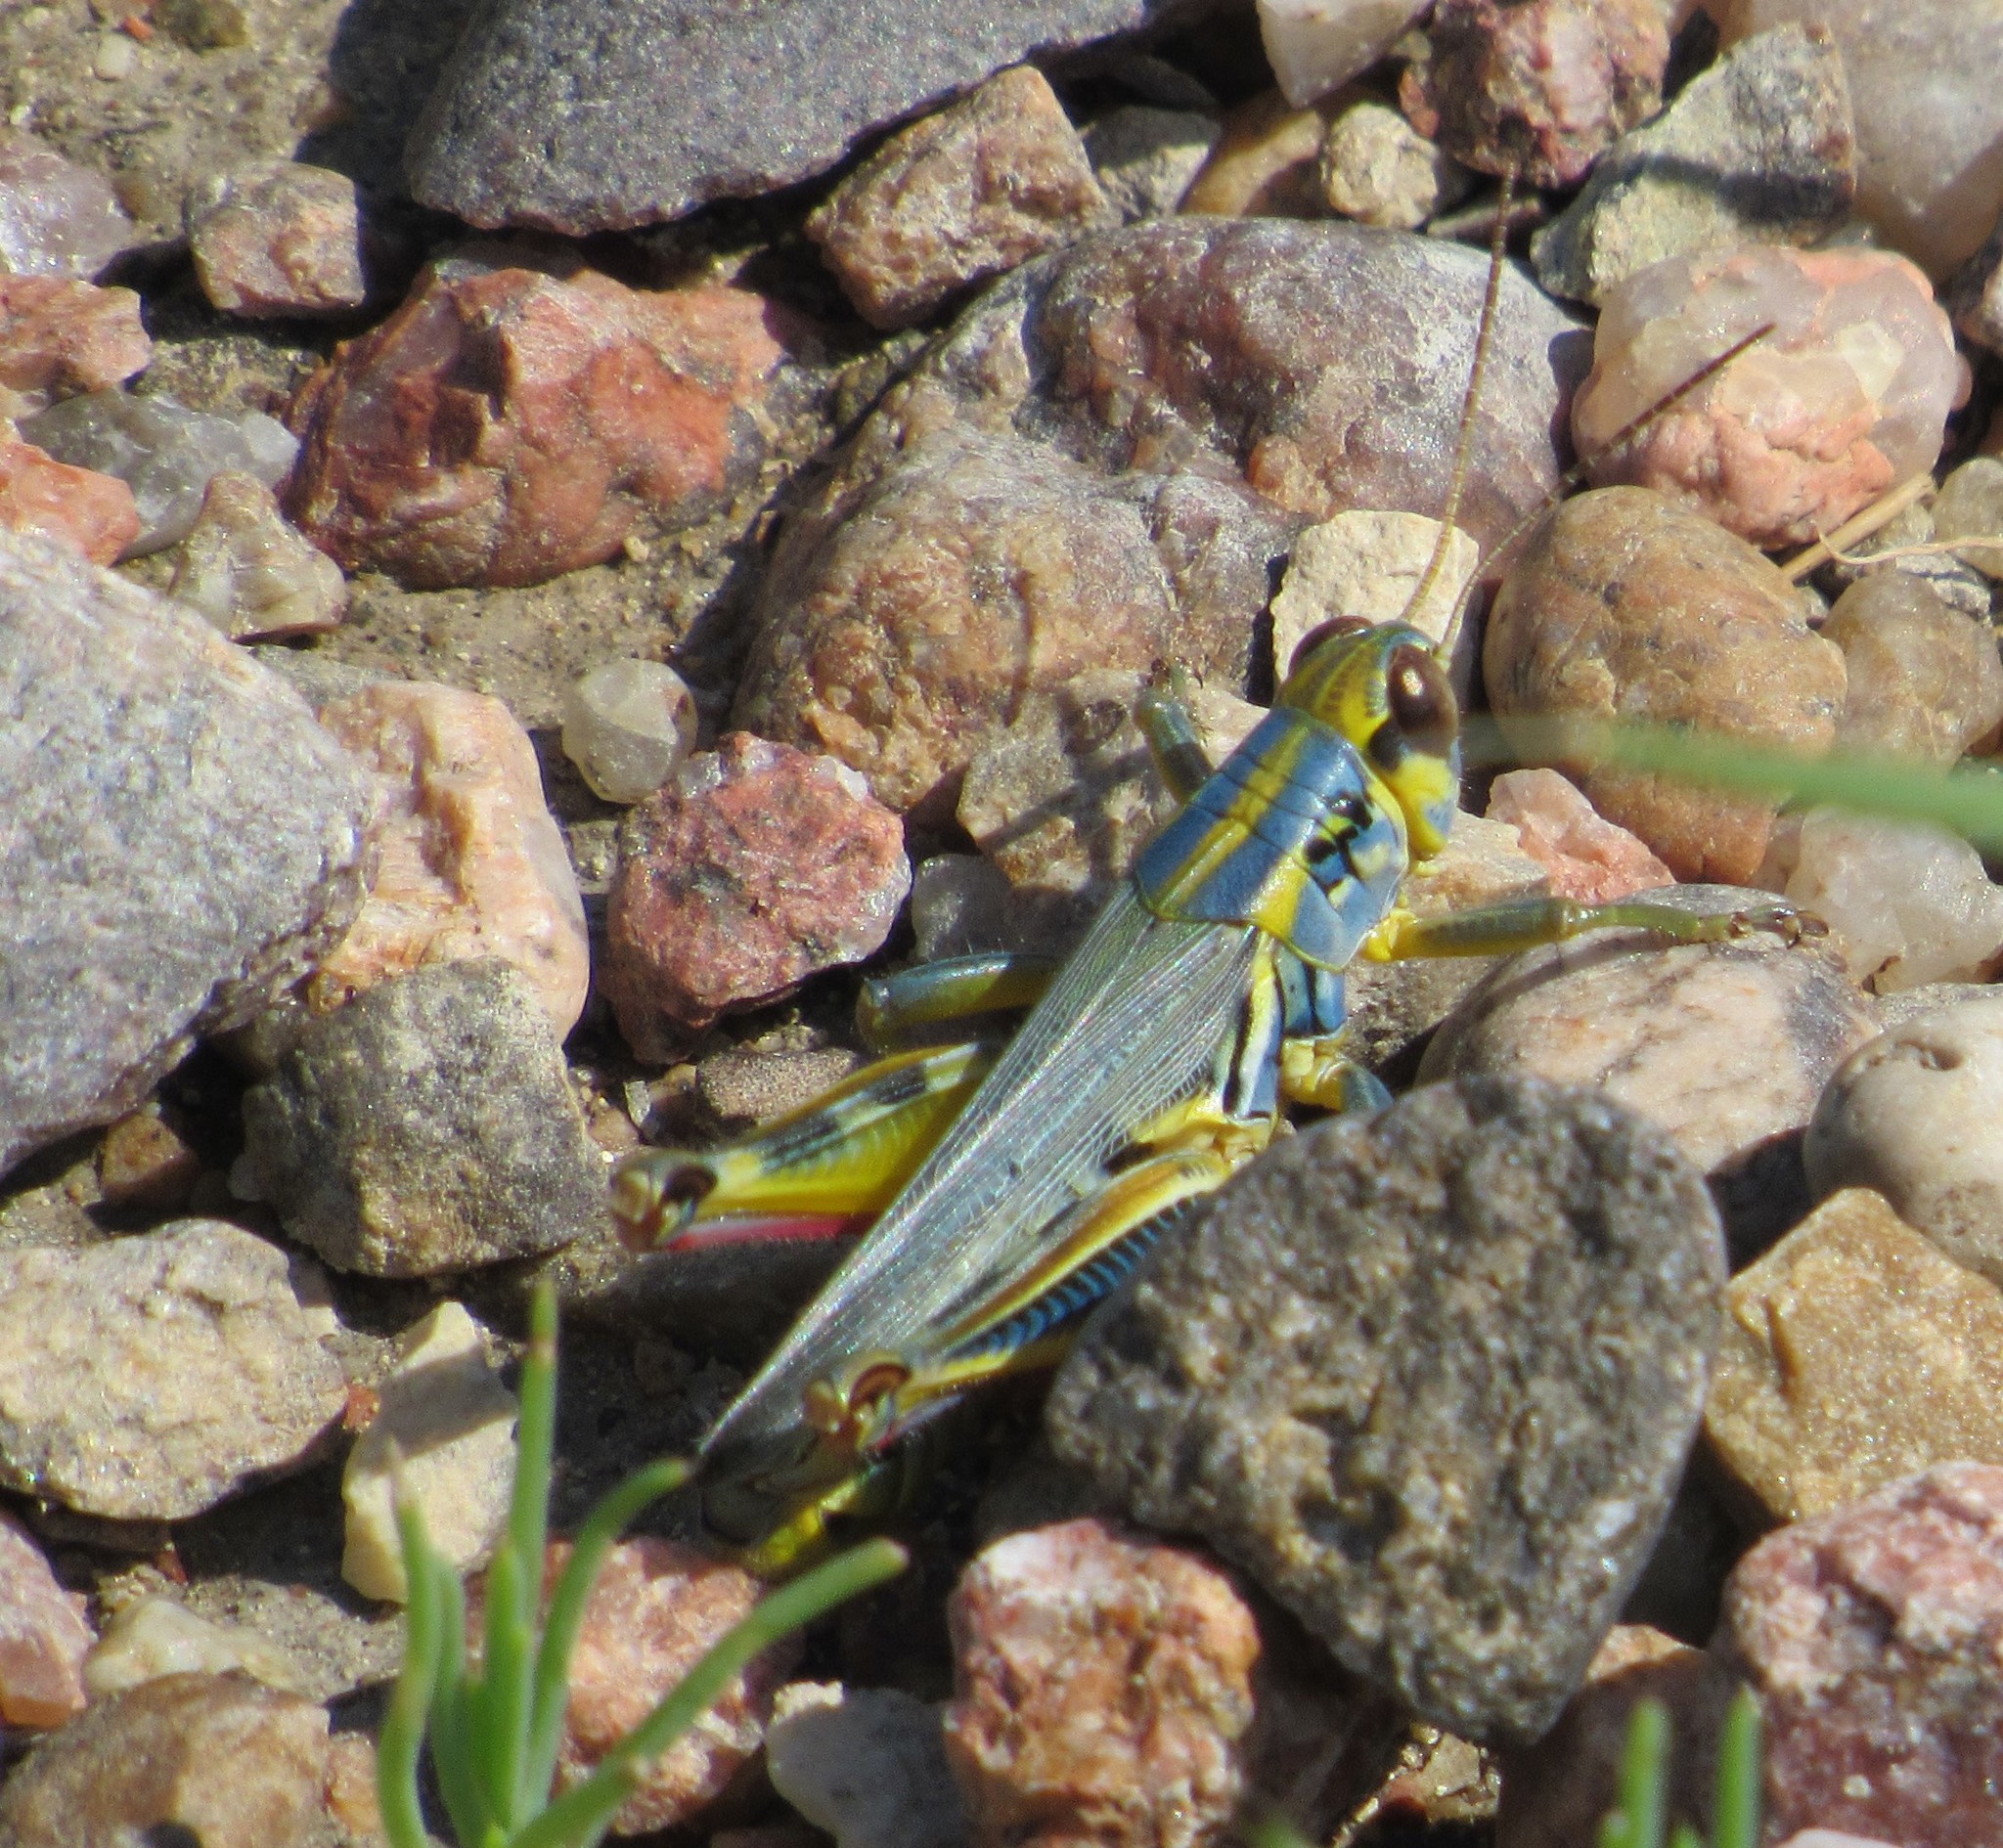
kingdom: Animalia
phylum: Arthropoda
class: Insecta
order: Orthoptera
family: Acrididae
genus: Melanoplus
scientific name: Melanoplus femurrubrum
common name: Red-legged grasshopper
